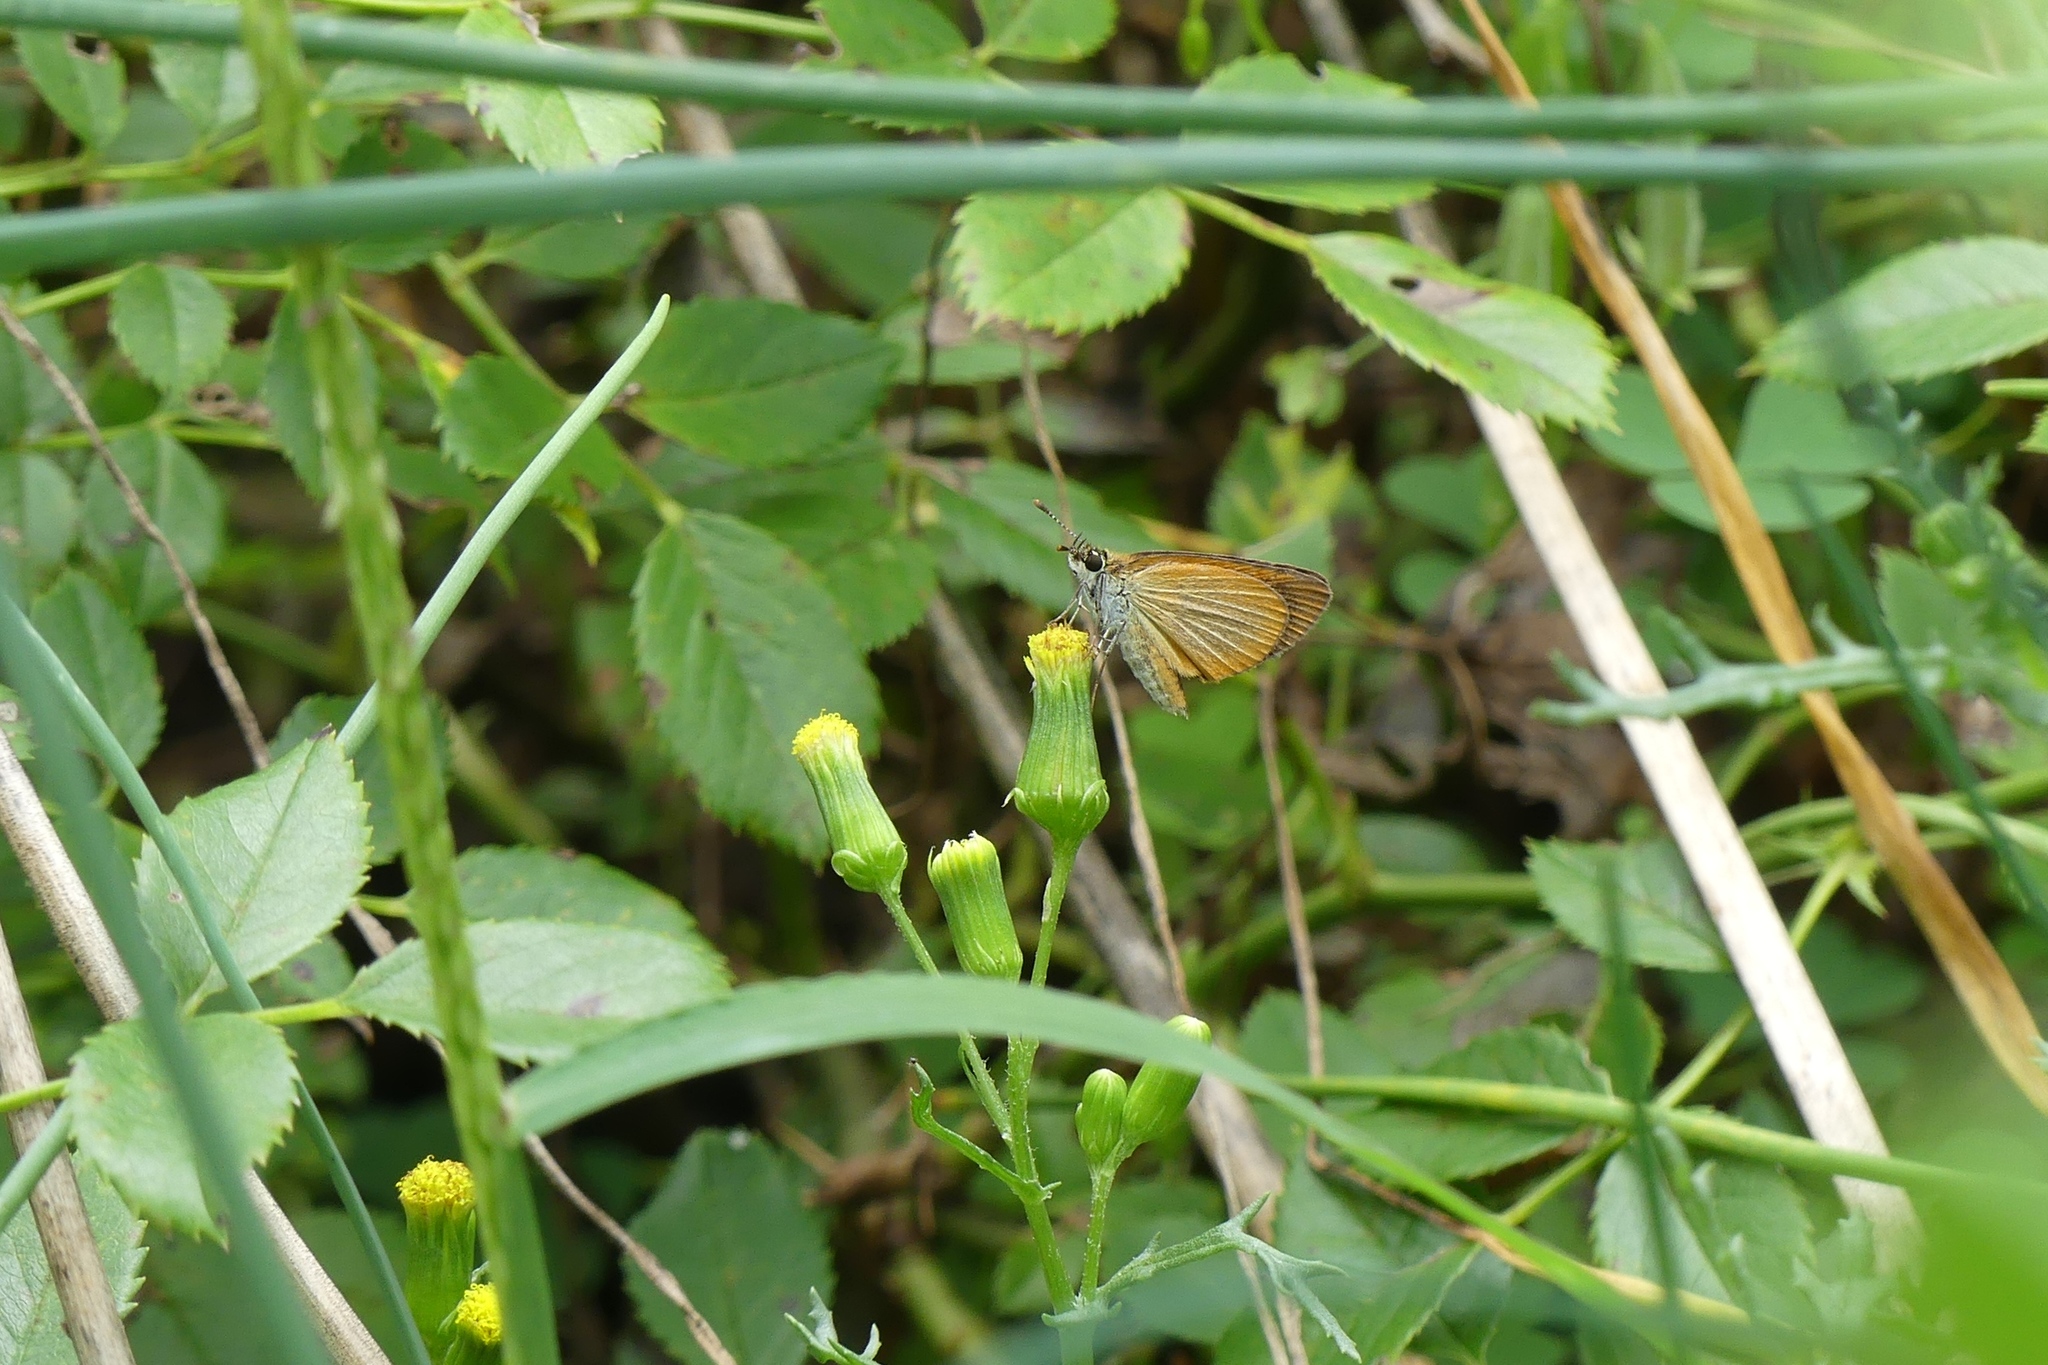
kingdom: Animalia
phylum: Arthropoda
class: Insecta
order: Lepidoptera
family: Hesperiidae
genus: Ancyloxypha
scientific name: Ancyloxypha numitor
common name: Least skipper
